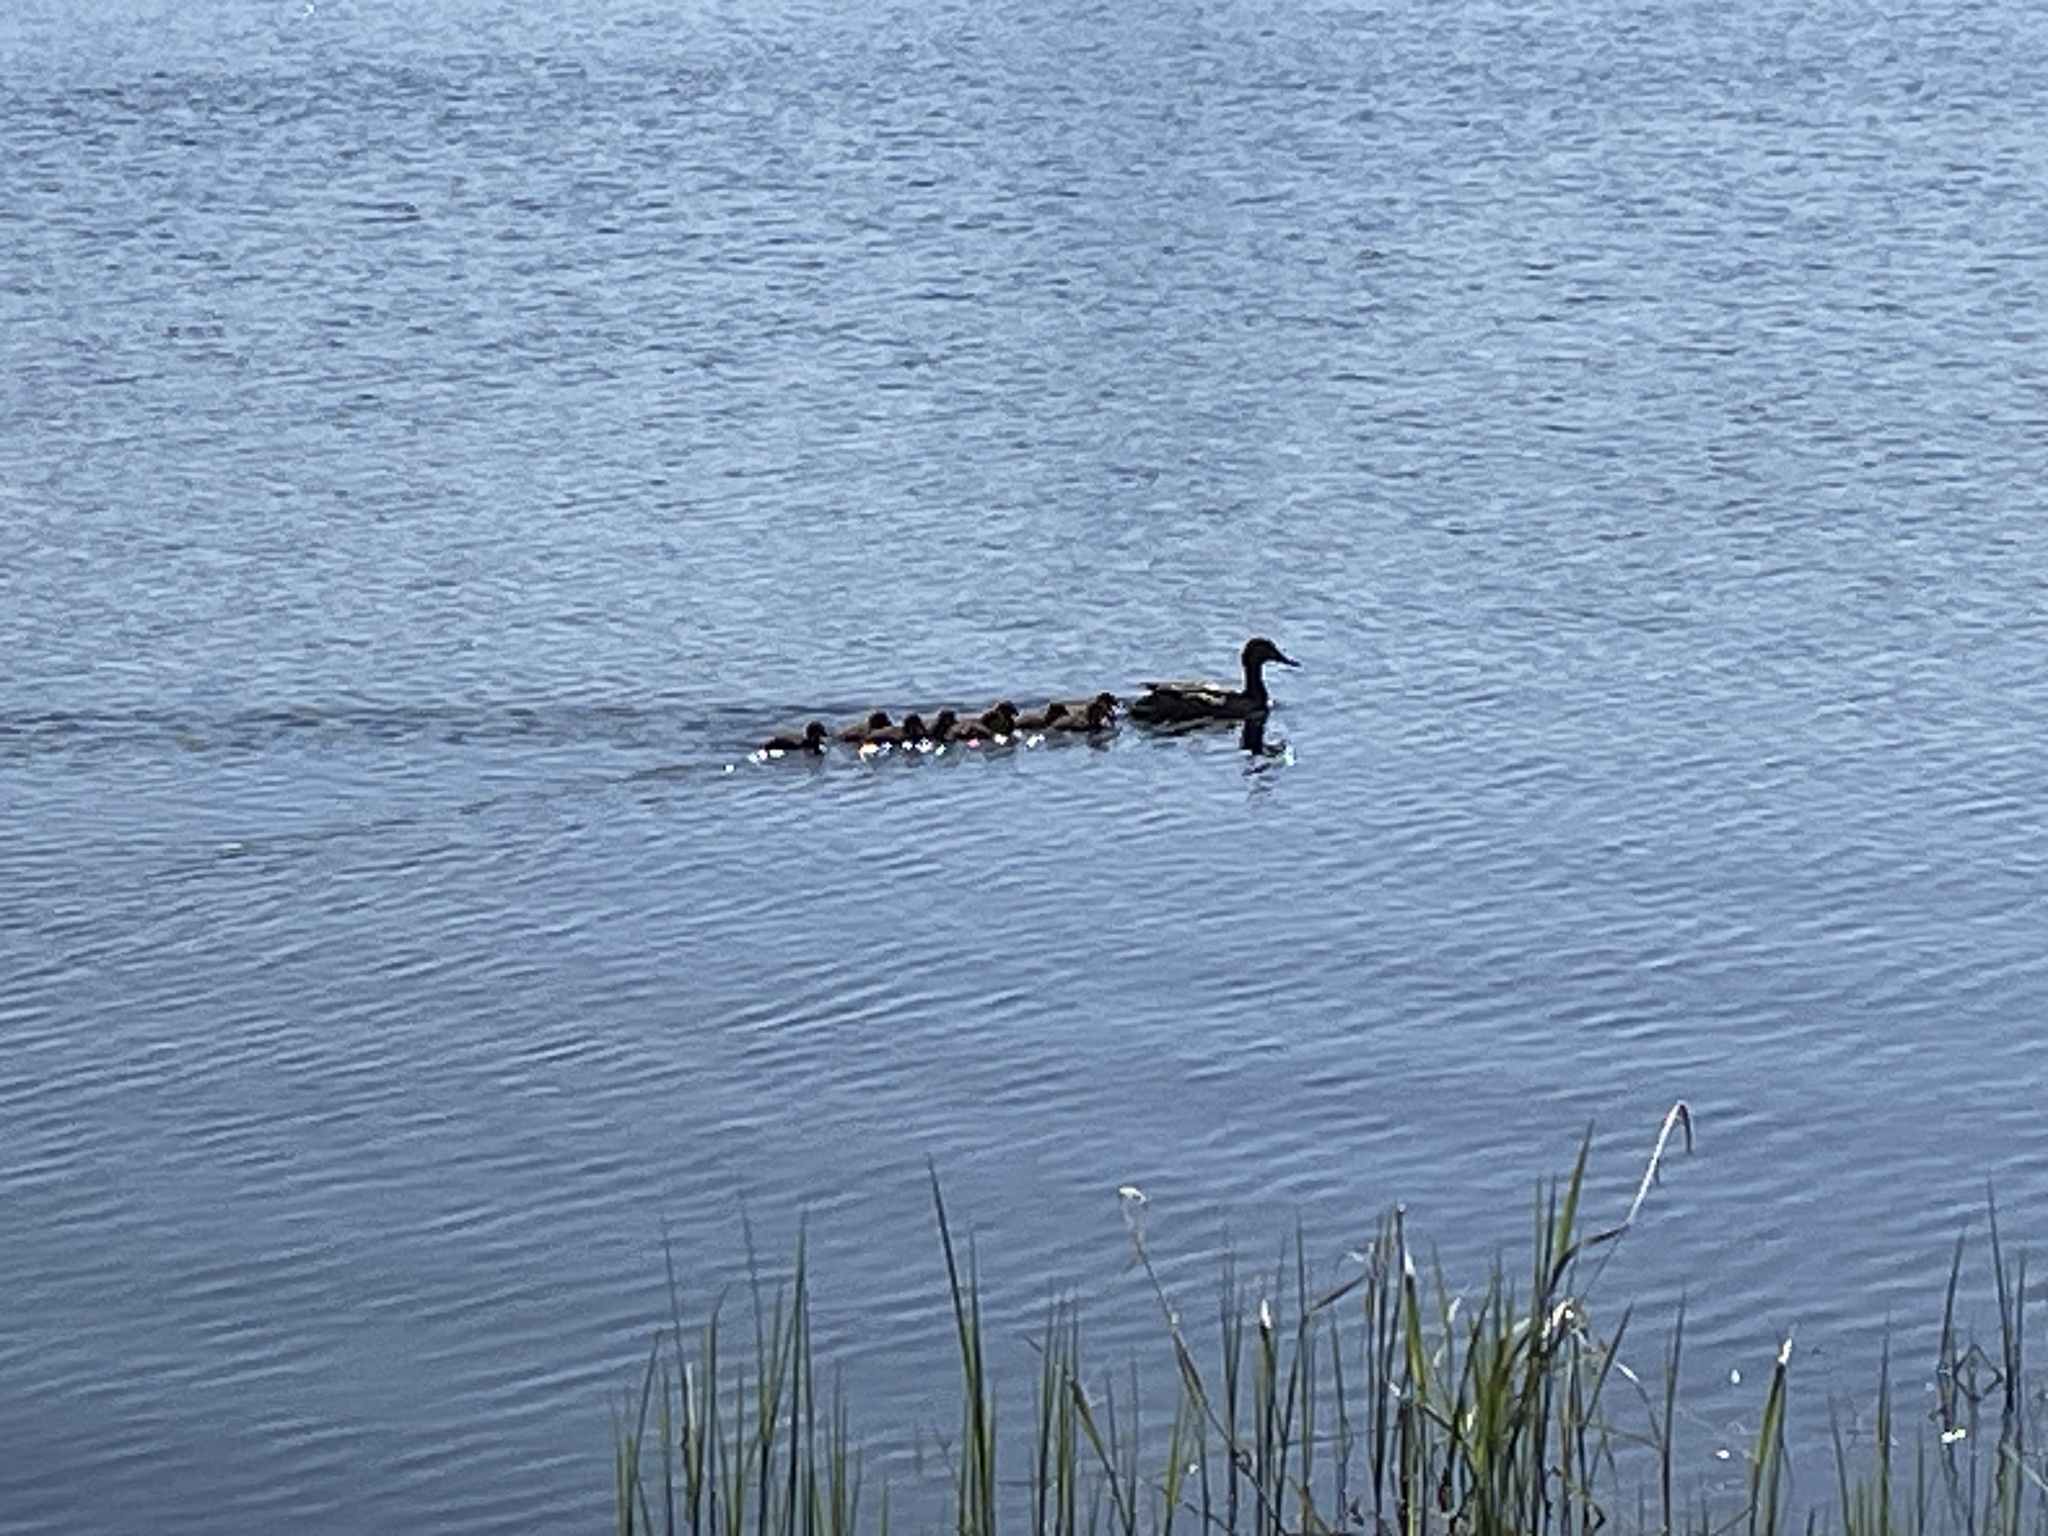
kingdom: Animalia
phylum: Chordata
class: Aves
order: Anseriformes
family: Anatidae
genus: Anas
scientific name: Anas platyrhynchos
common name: Mallard
